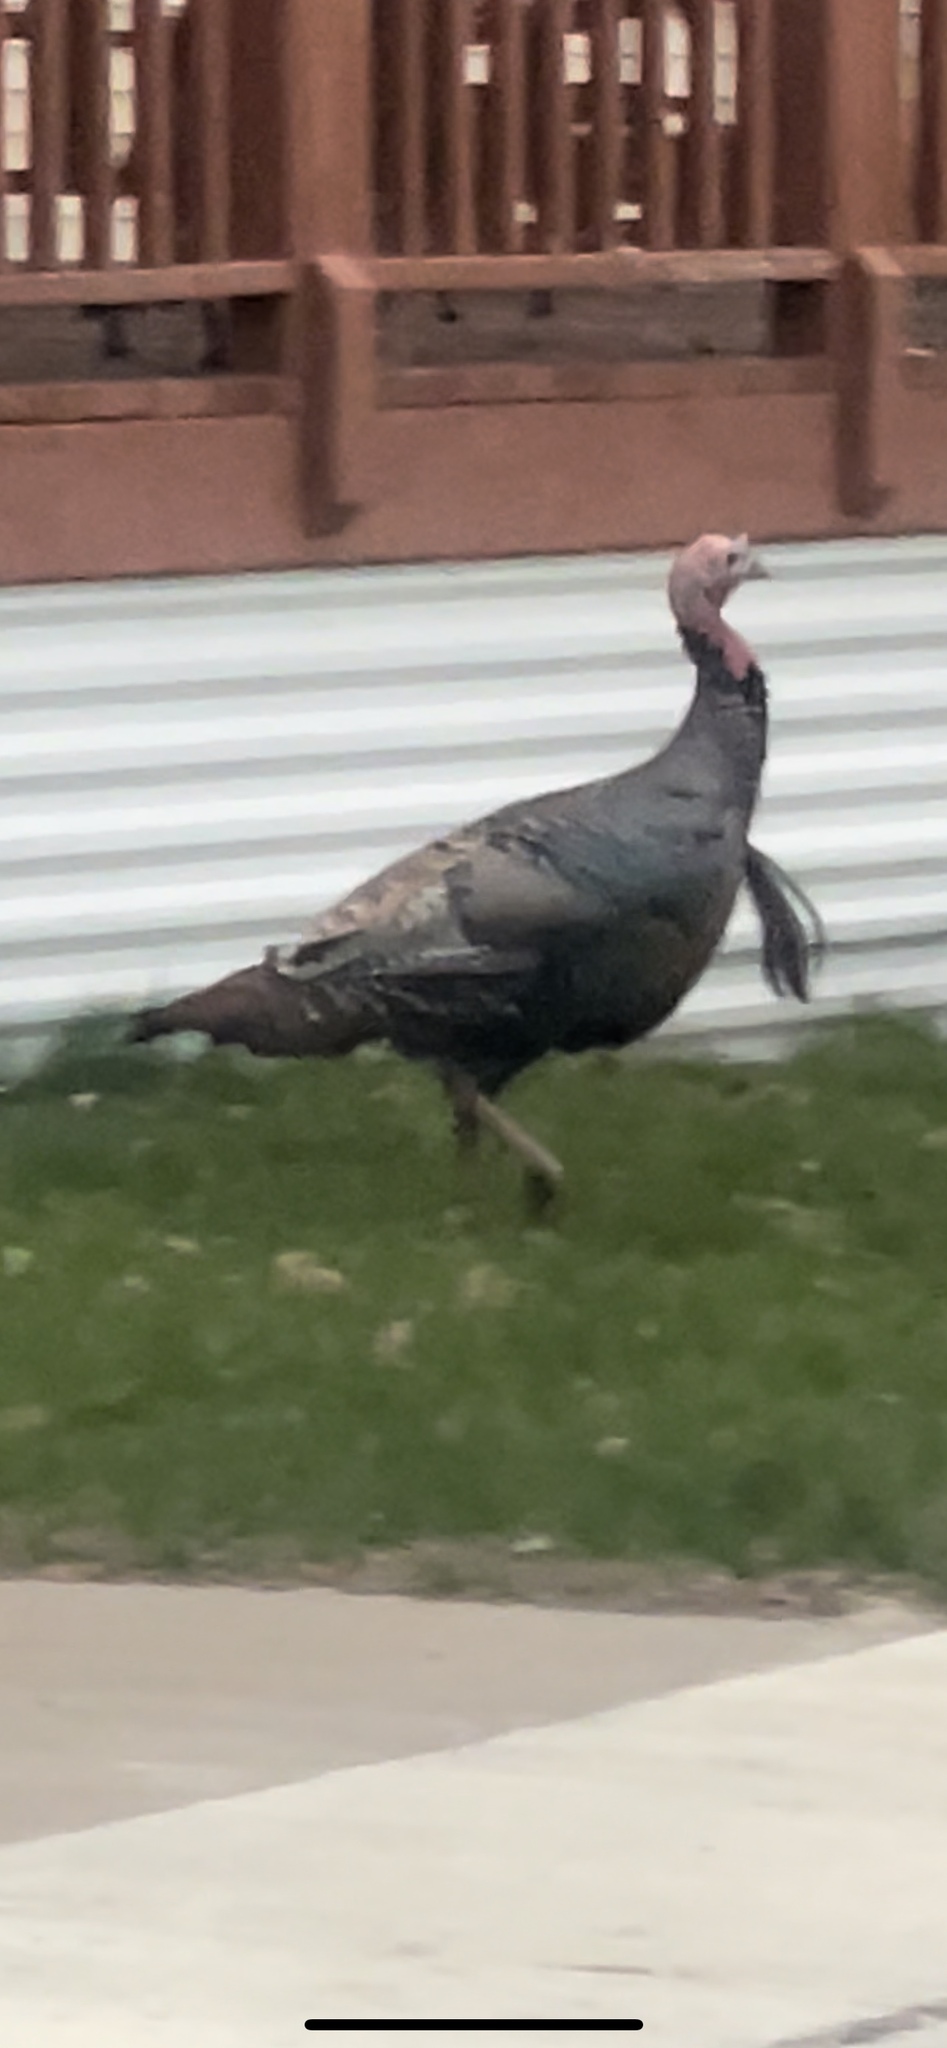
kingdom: Animalia
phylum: Chordata
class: Aves
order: Galliformes
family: Phasianidae
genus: Meleagris
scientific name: Meleagris gallopavo
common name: Wild turkey
